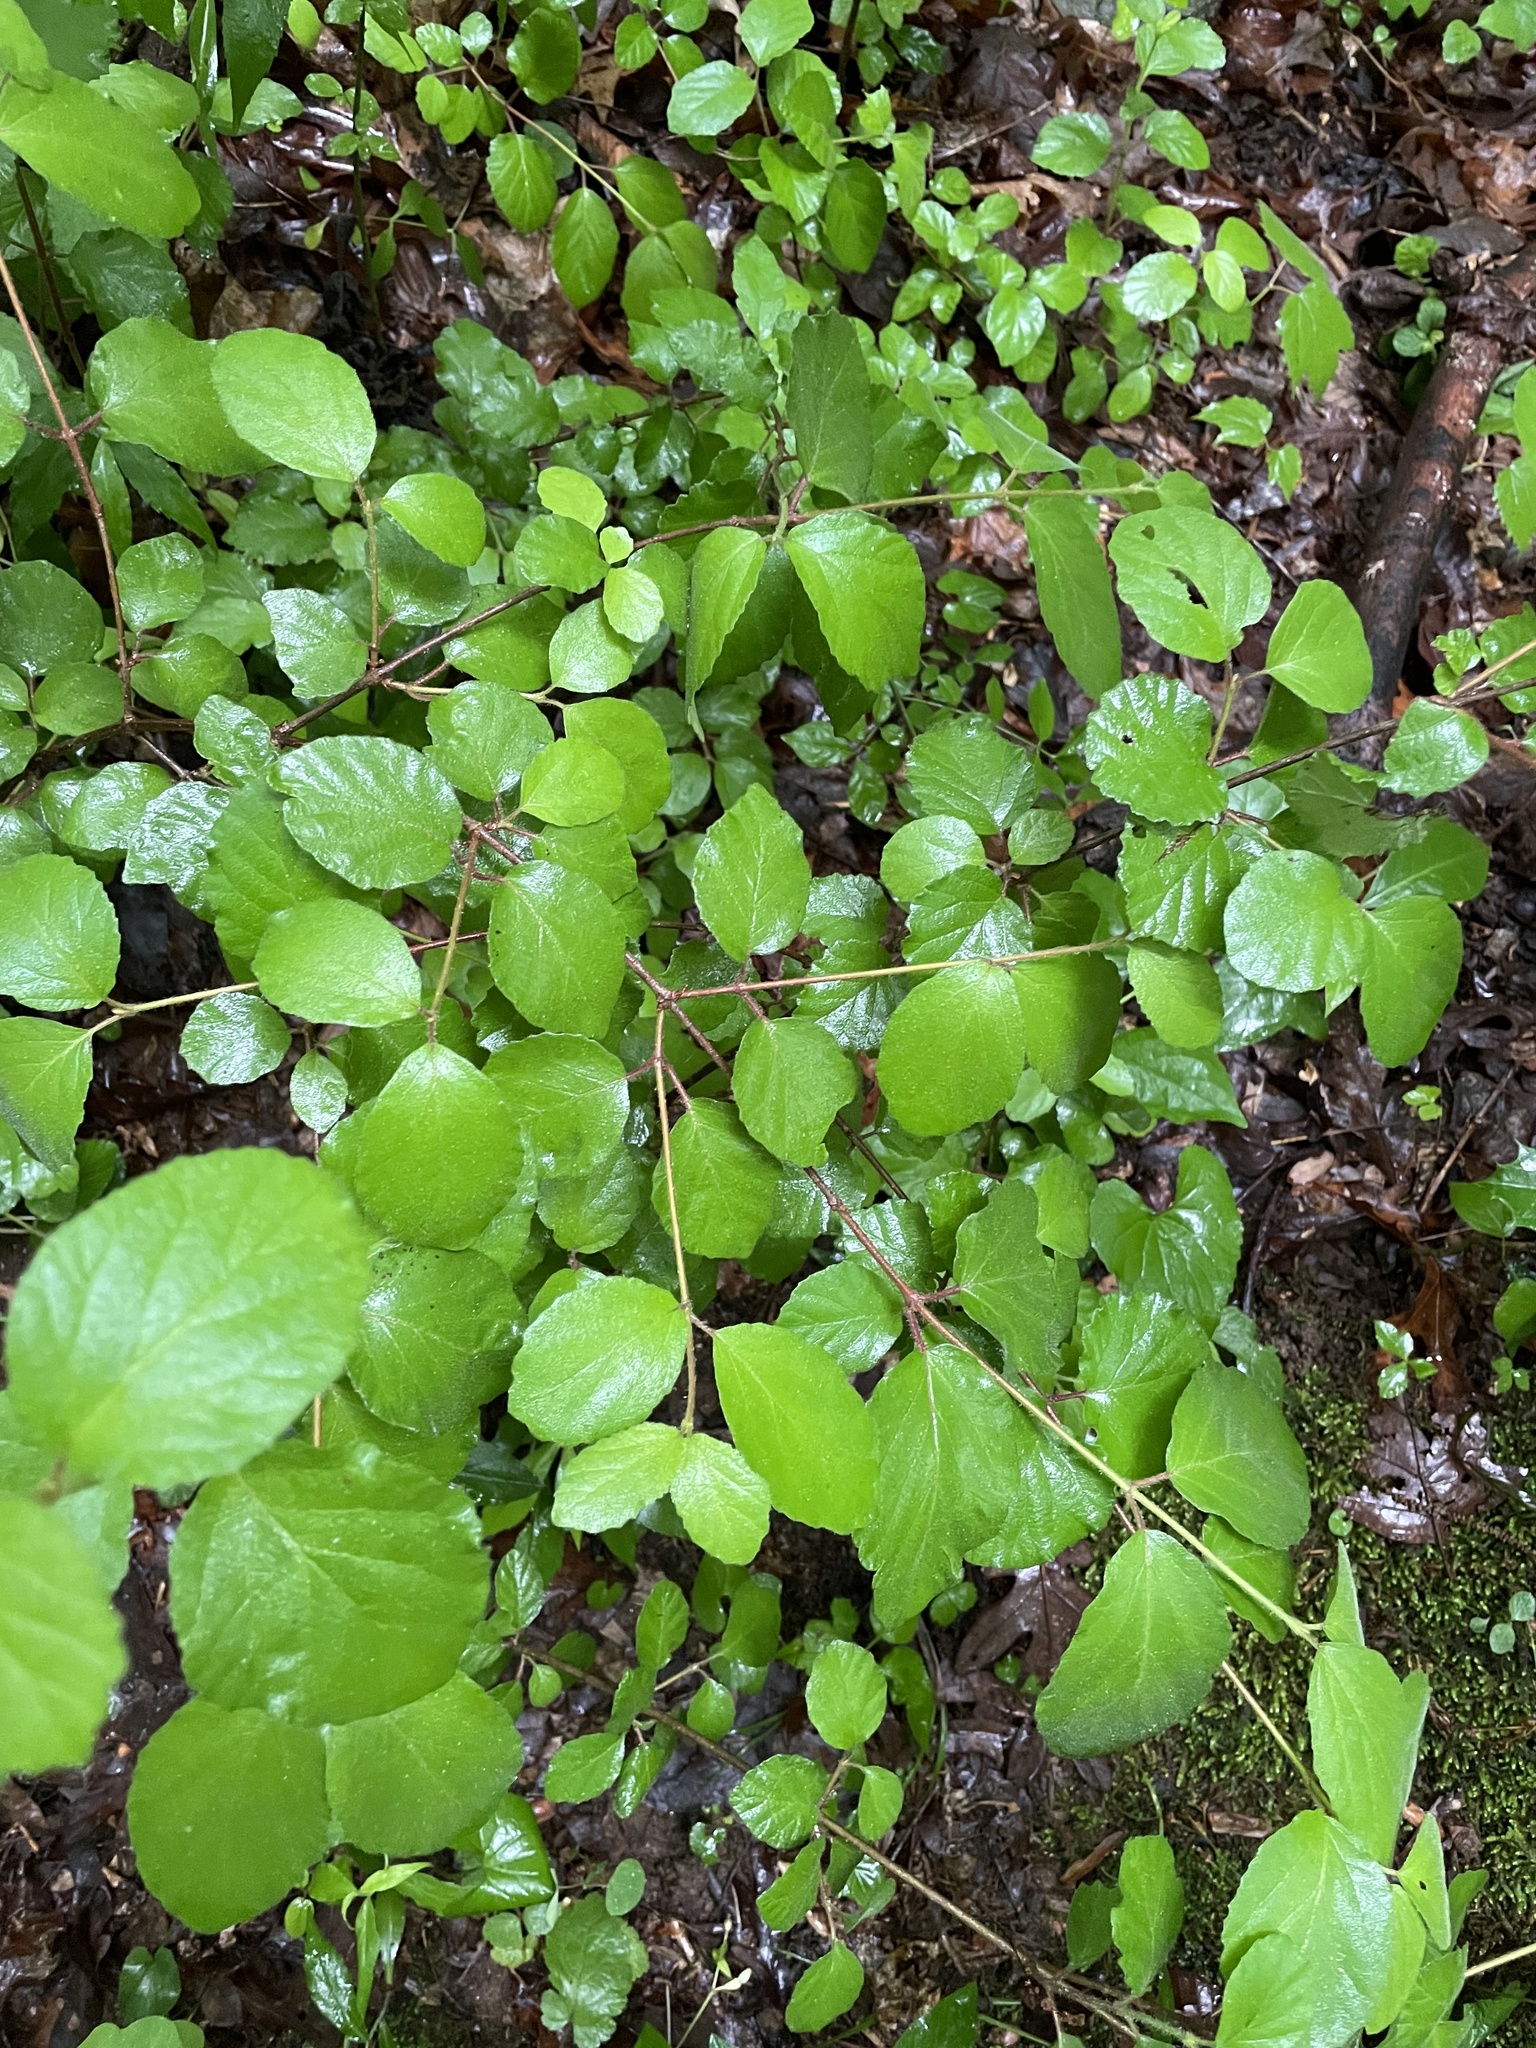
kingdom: Plantae
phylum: Tracheophyta
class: Magnoliopsida
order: Dipsacales
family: Viburnaceae
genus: Viburnum
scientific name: Viburnum dilatatum
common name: Linden arrowwood
